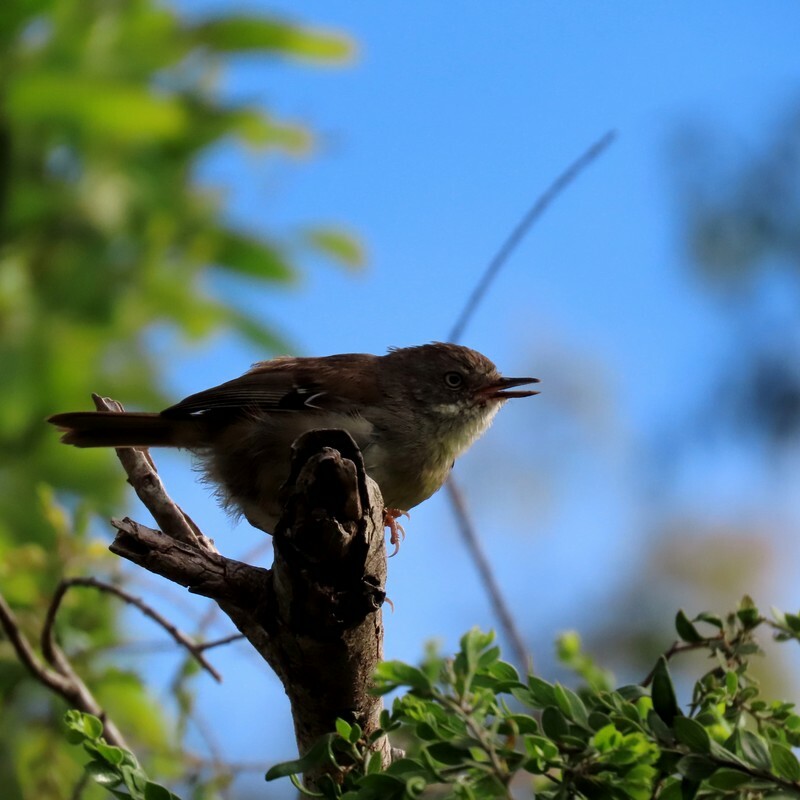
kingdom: Animalia
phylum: Chordata
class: Aves
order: Passeriformes
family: Acanthizidae
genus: Sericornis
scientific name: Sericornis frontalis
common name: White-browed scrubwren
